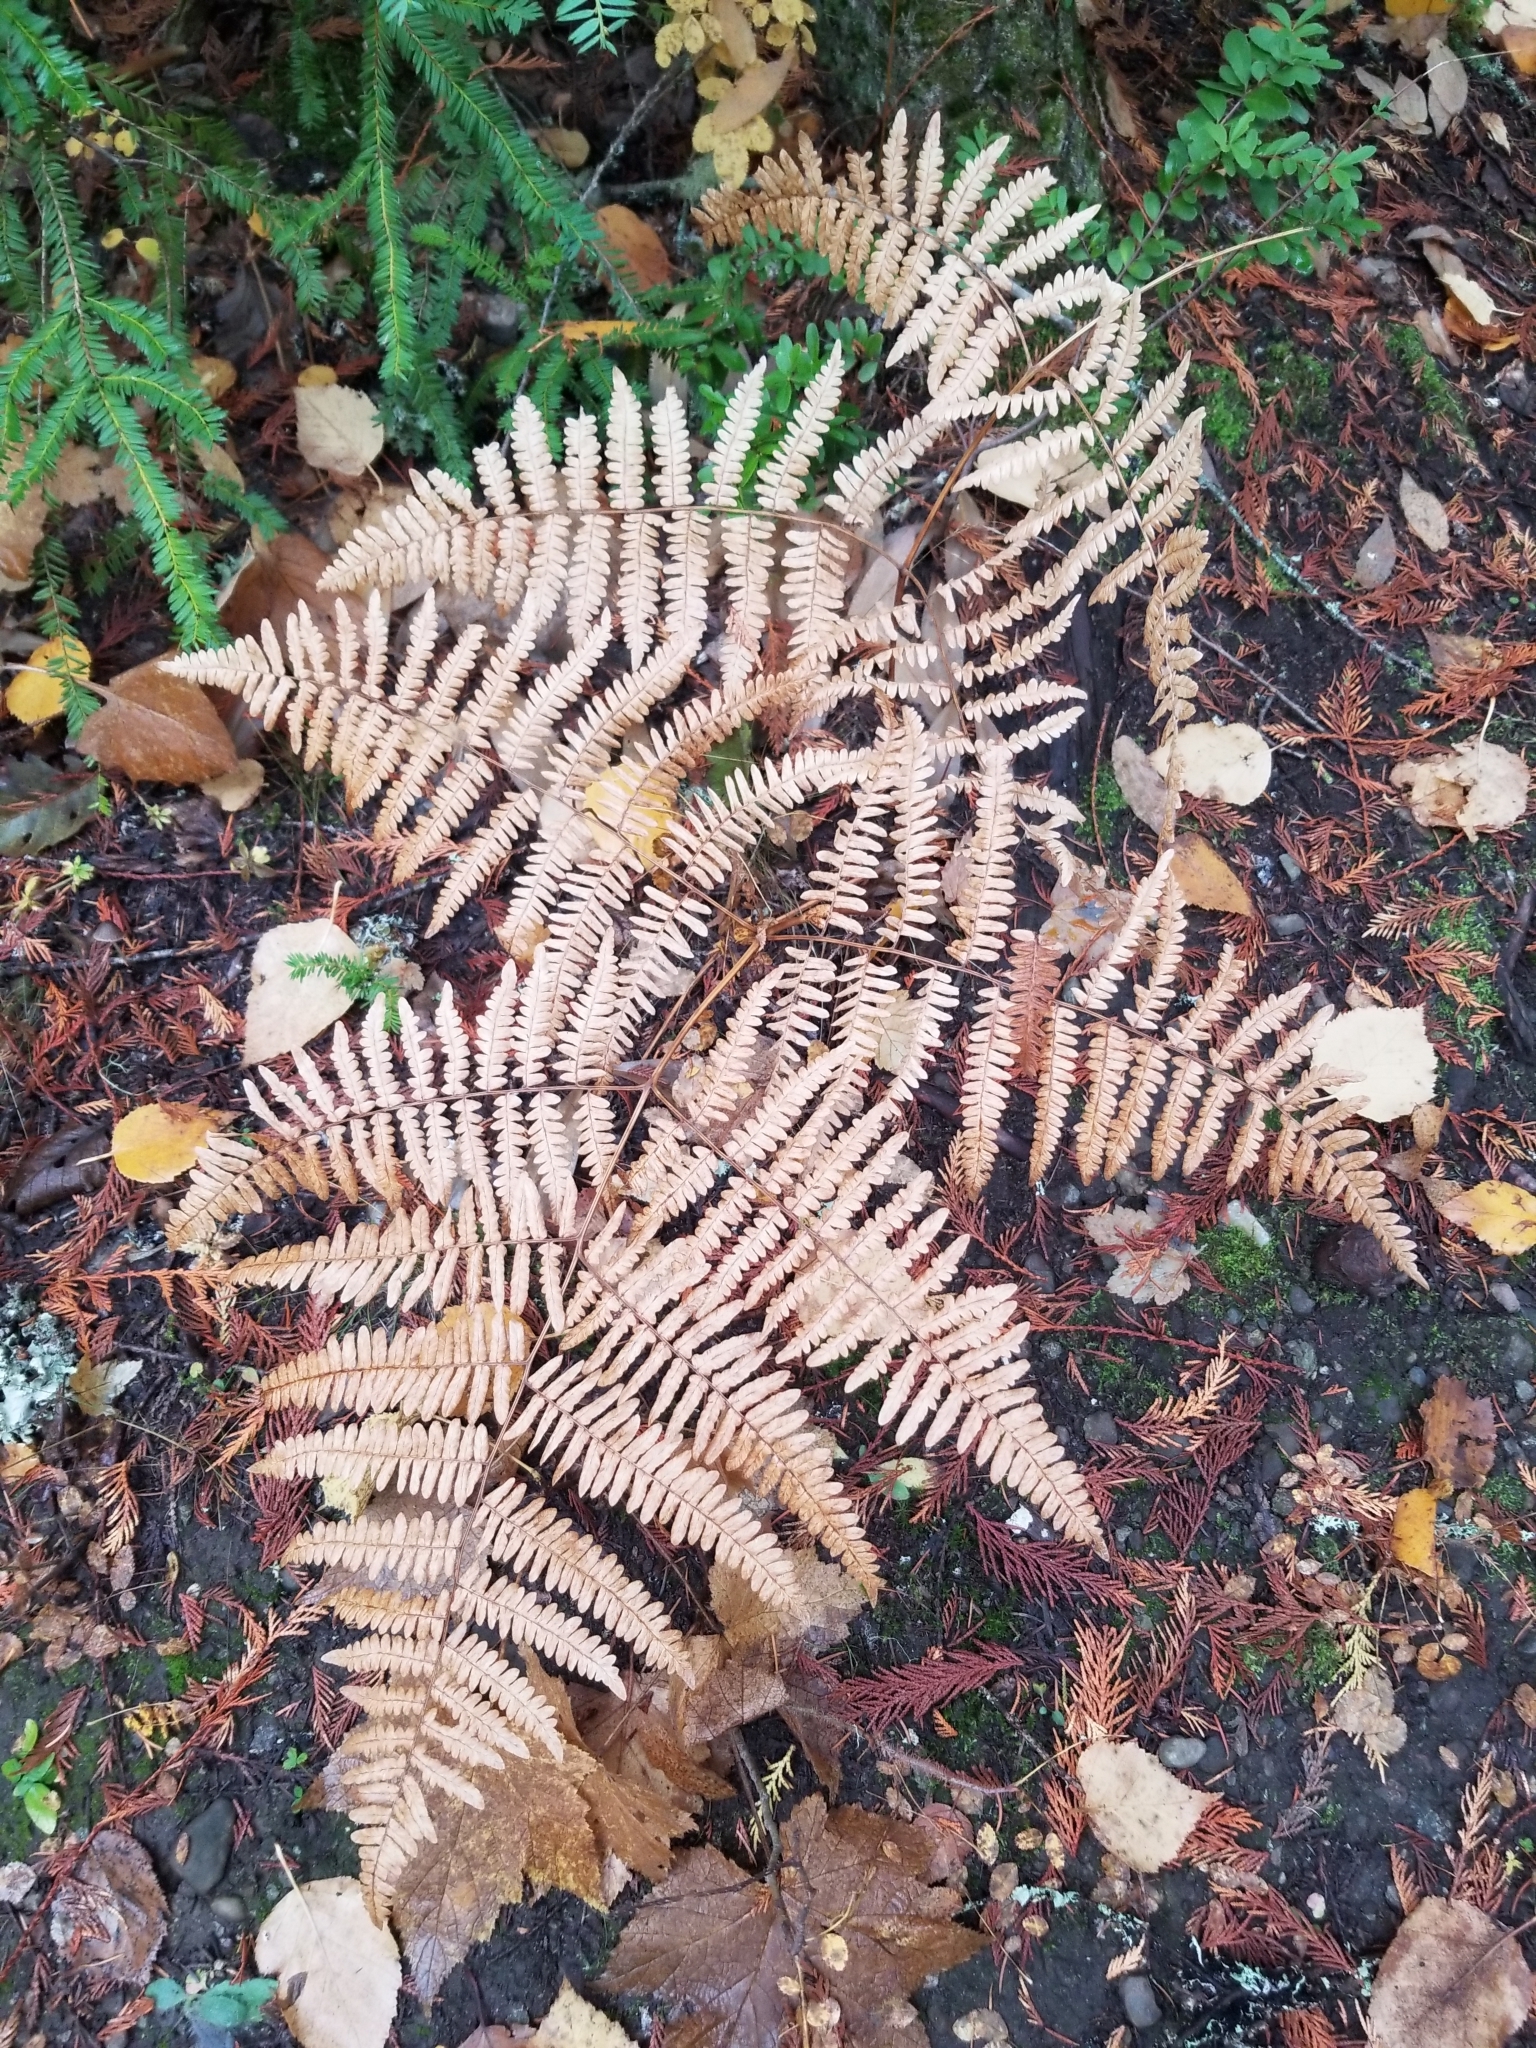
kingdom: Plantae
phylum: Tracheophyta
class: Polypodiopsida
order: Polypodiales
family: Dennstaedtiaceae
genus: Pteridium
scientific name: Pteridium aquilinum
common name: Bracken
